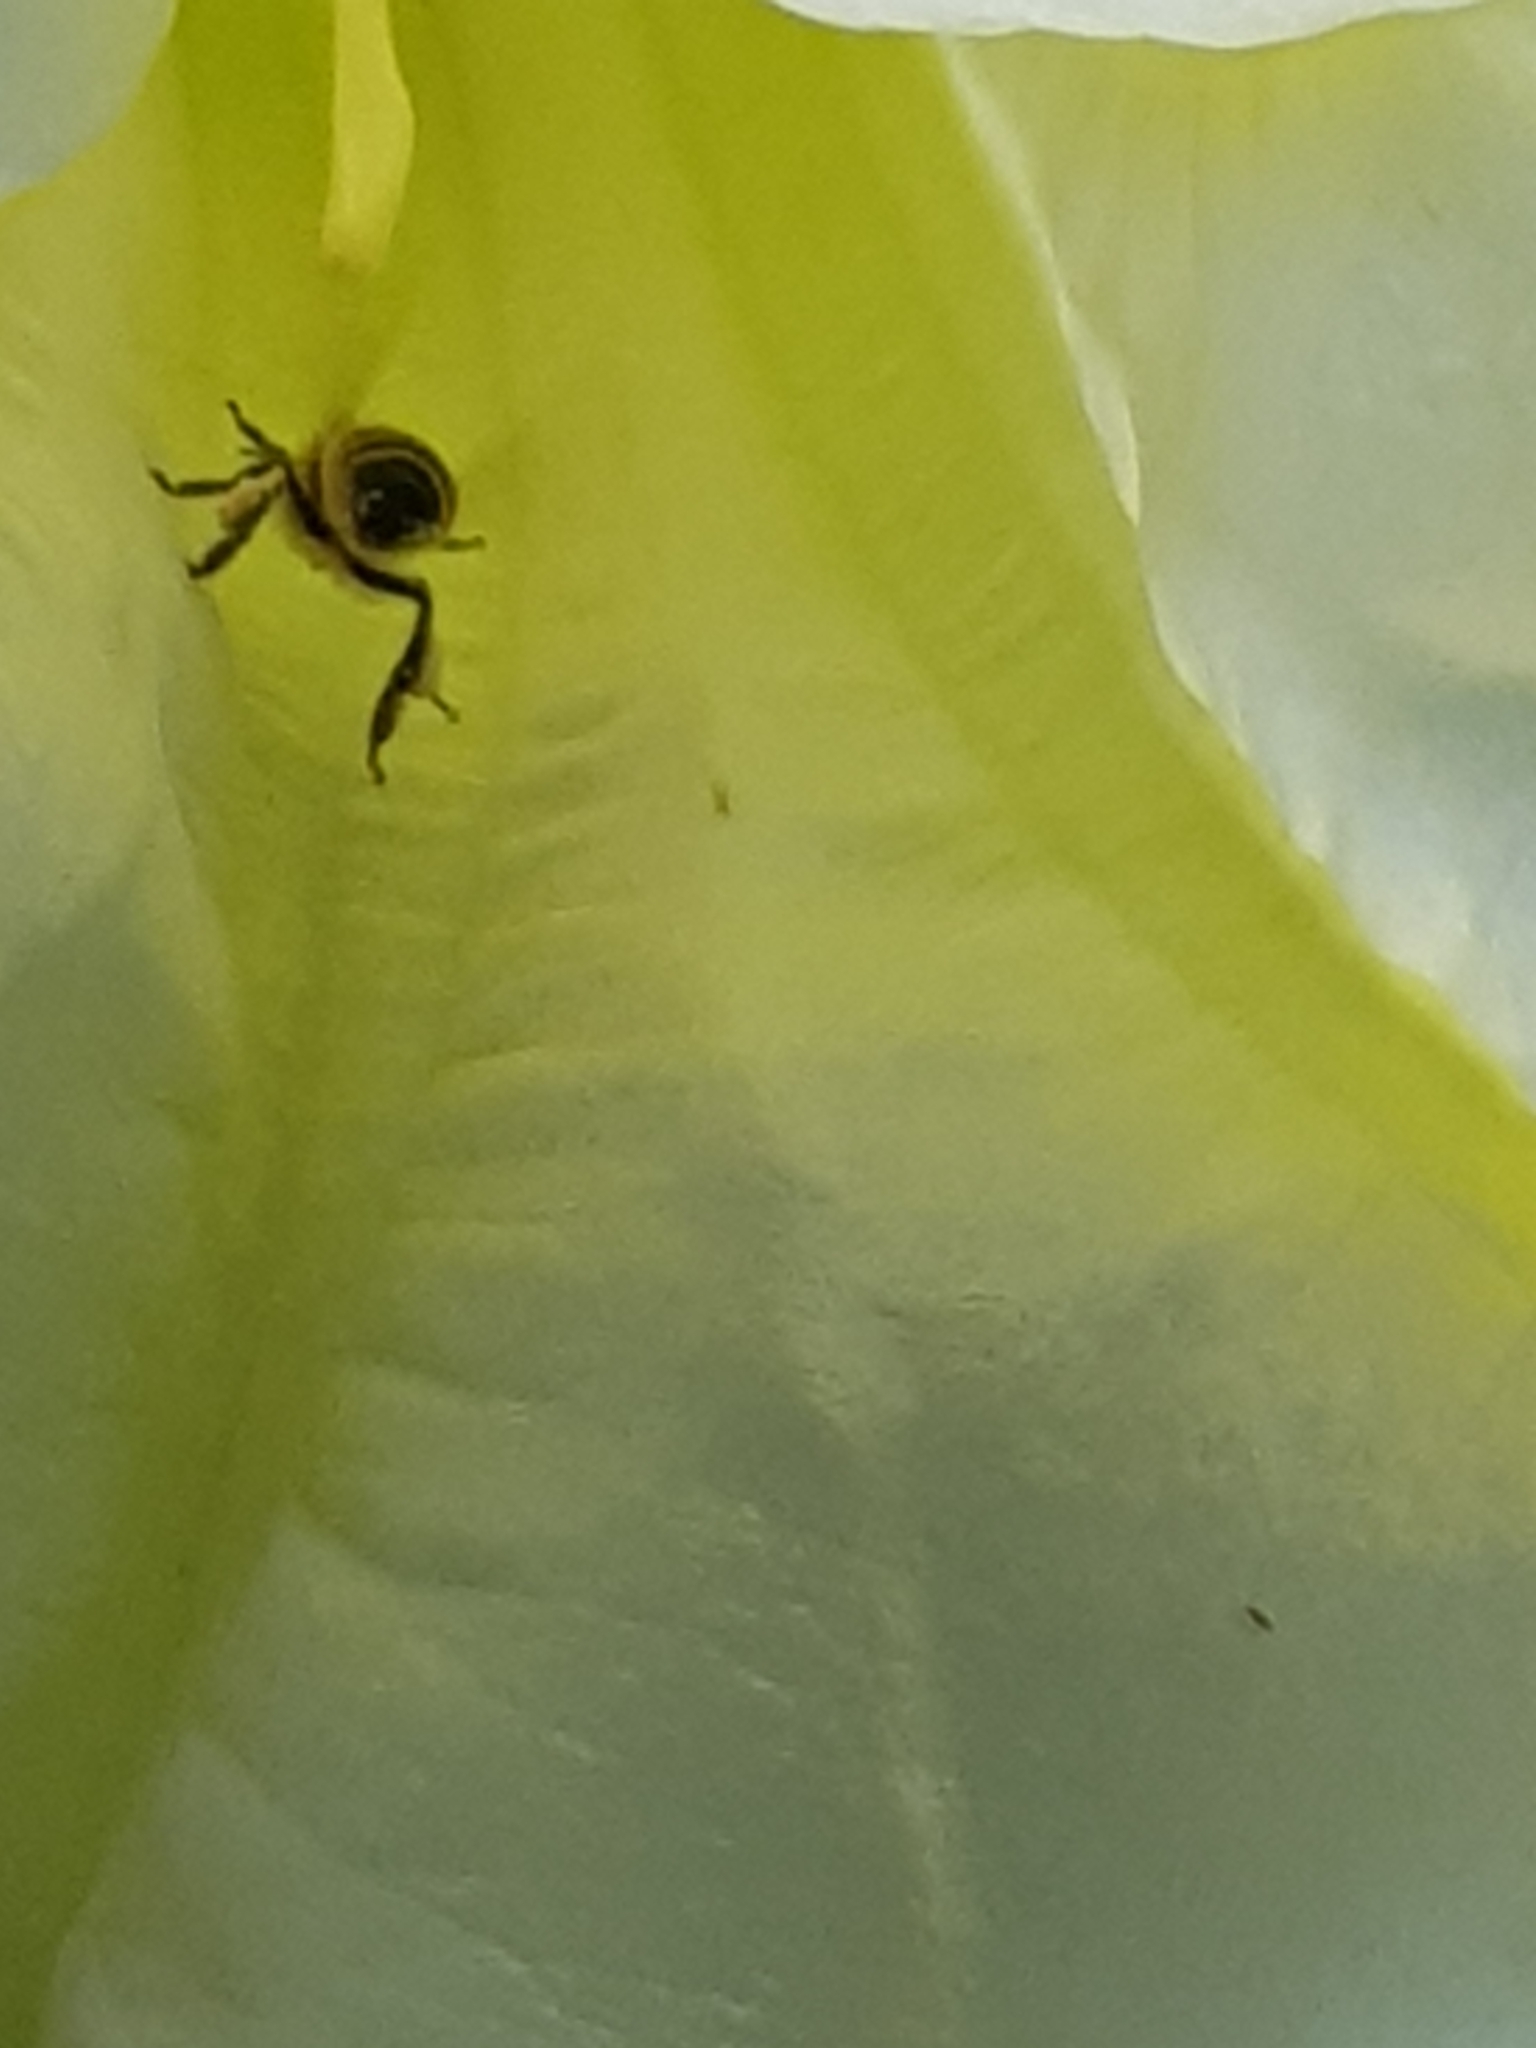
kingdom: Animalia
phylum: Arthropoda
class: Insecta
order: Hymenoptera
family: Apidae
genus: Apis
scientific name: Apis mellifera
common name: Honey bee
